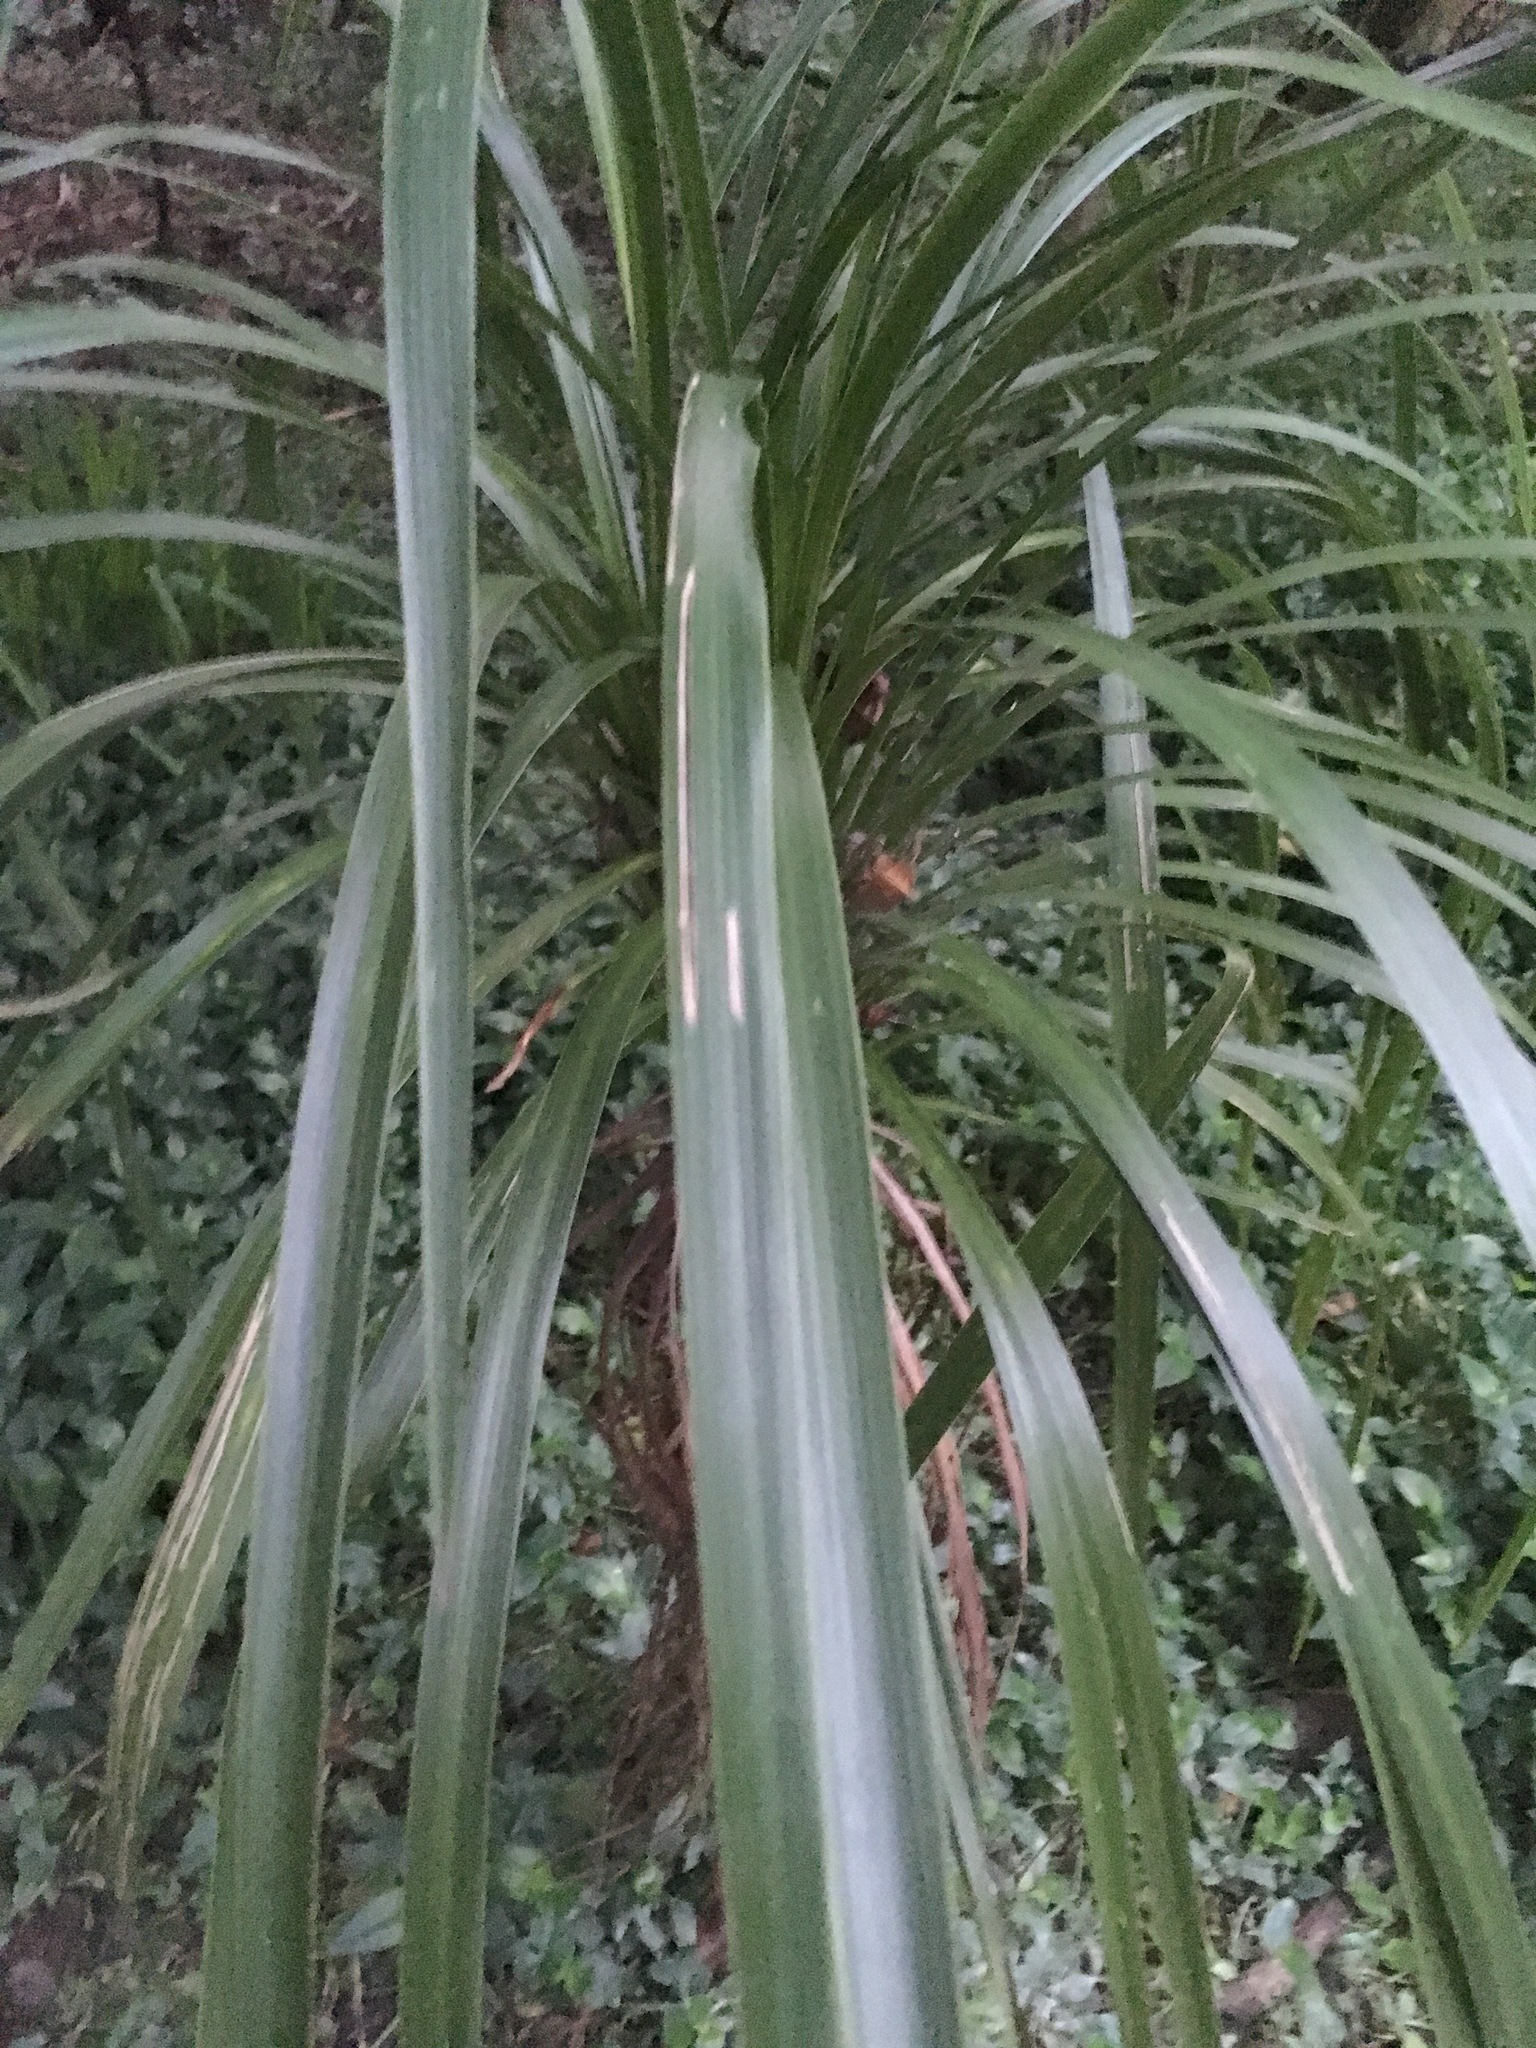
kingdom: Plantae
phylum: Tracheophyta
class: Liliopsida
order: Asparagales
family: Asparagaceae
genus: Cordyline
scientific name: Cordyline australis
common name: Cabbage-palm
